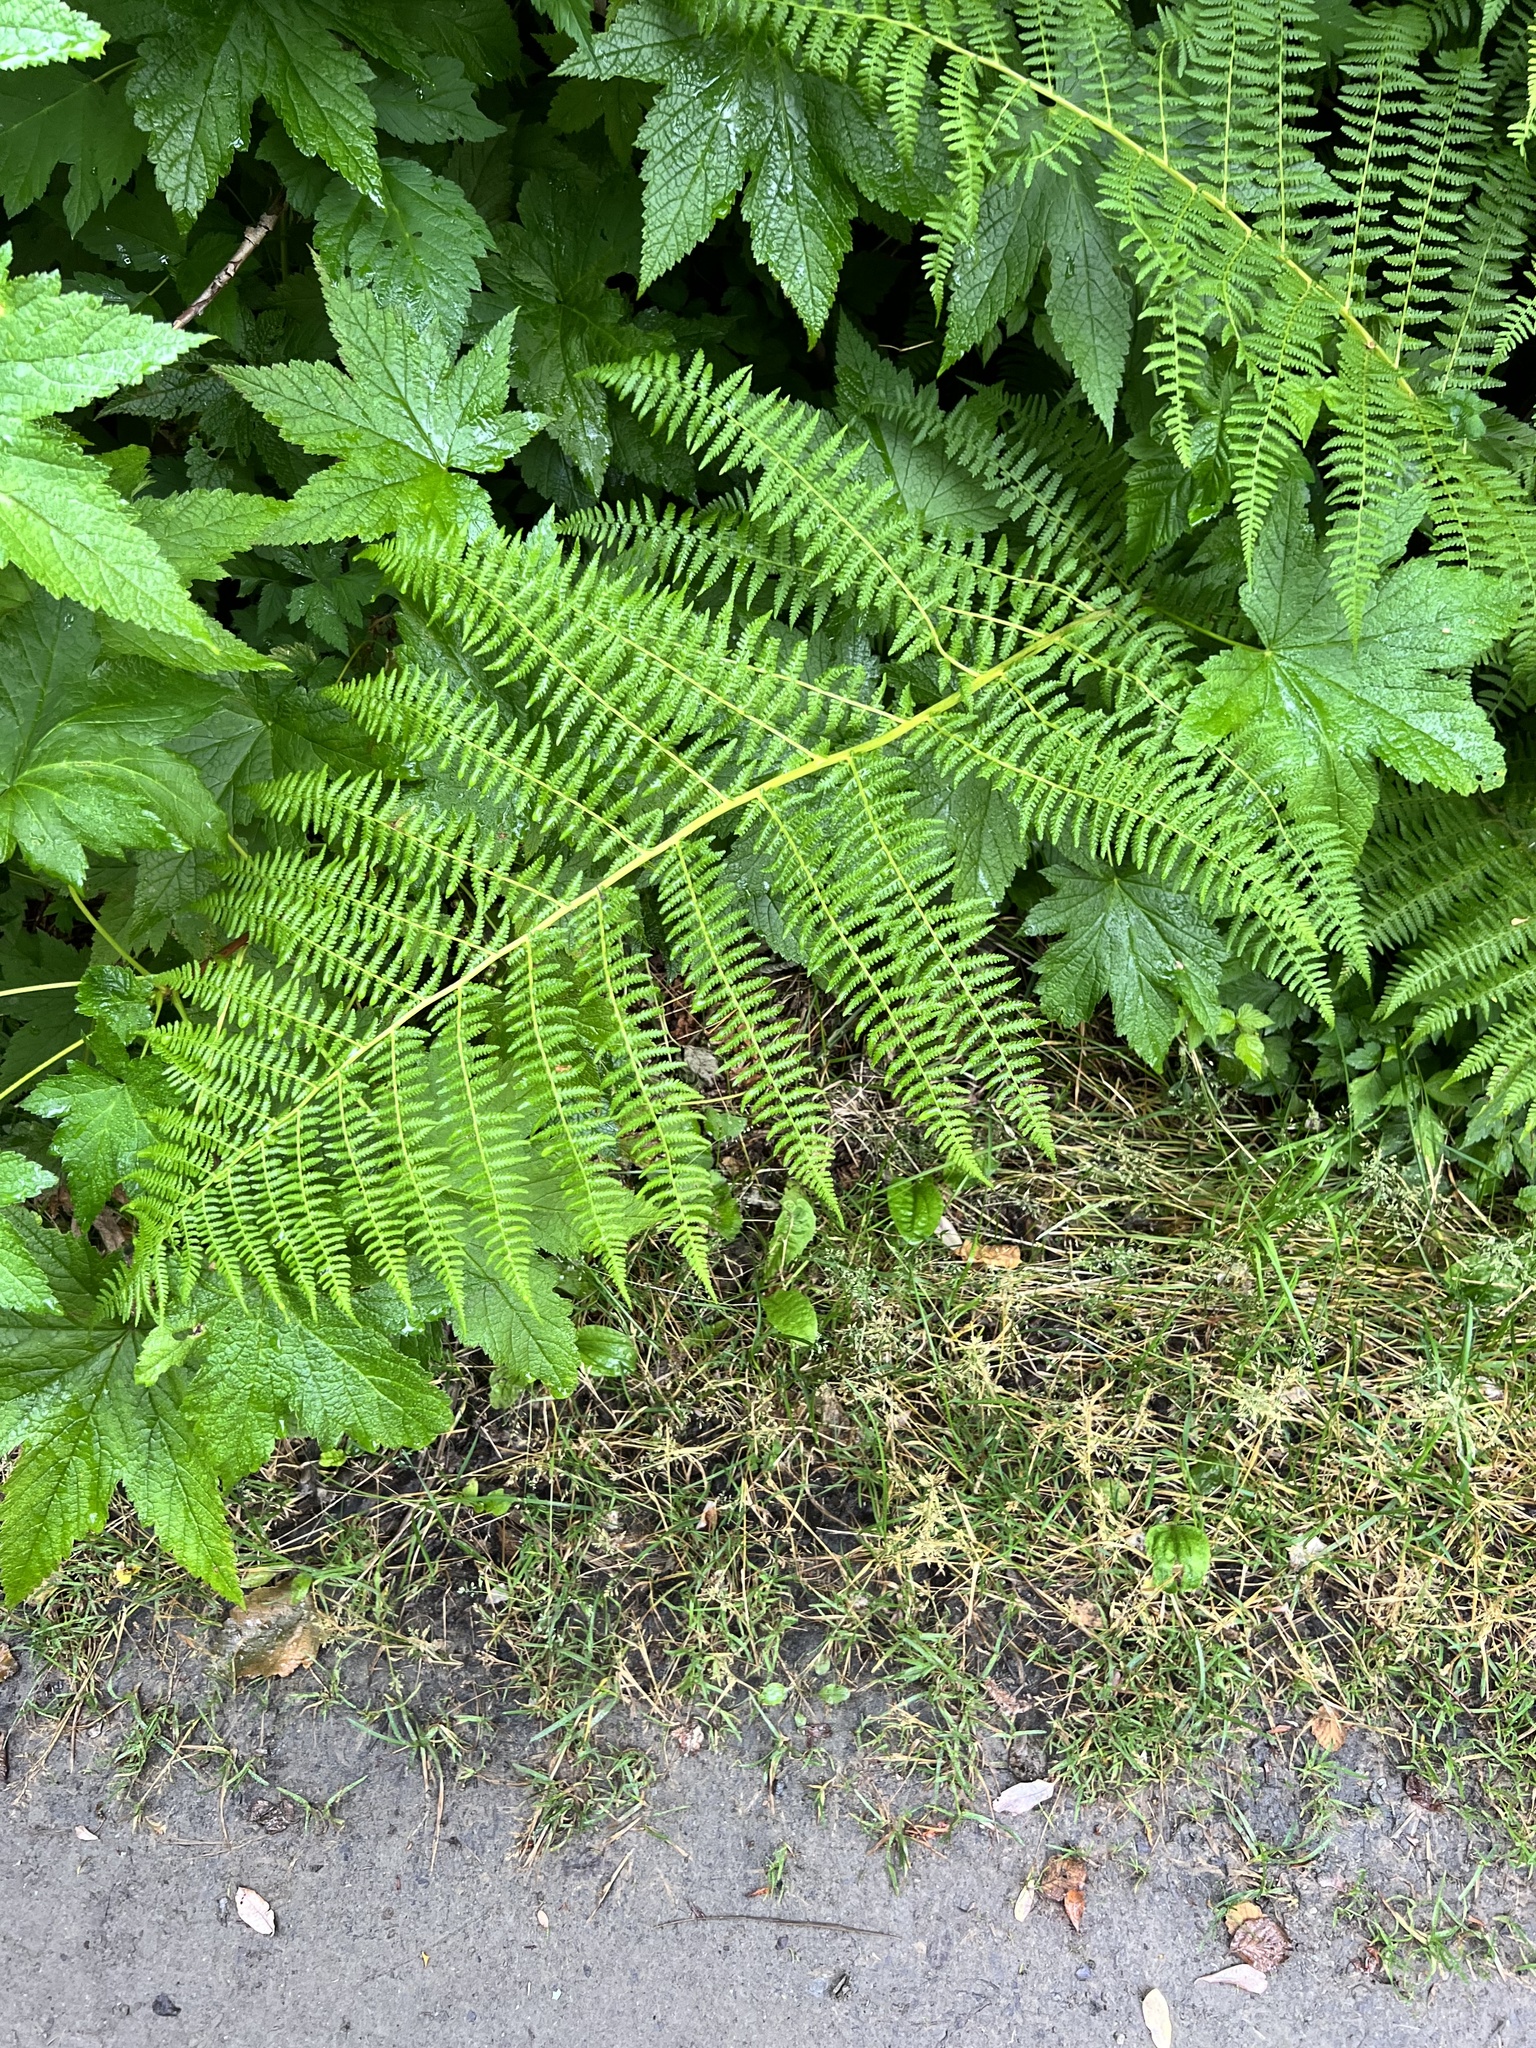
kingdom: Plantae
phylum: Tracheophyta
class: Polypodiopsida
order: Polypodiales
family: Athyriaceae
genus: Athyrium
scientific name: Athyrium filix-femina
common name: Lady fern
